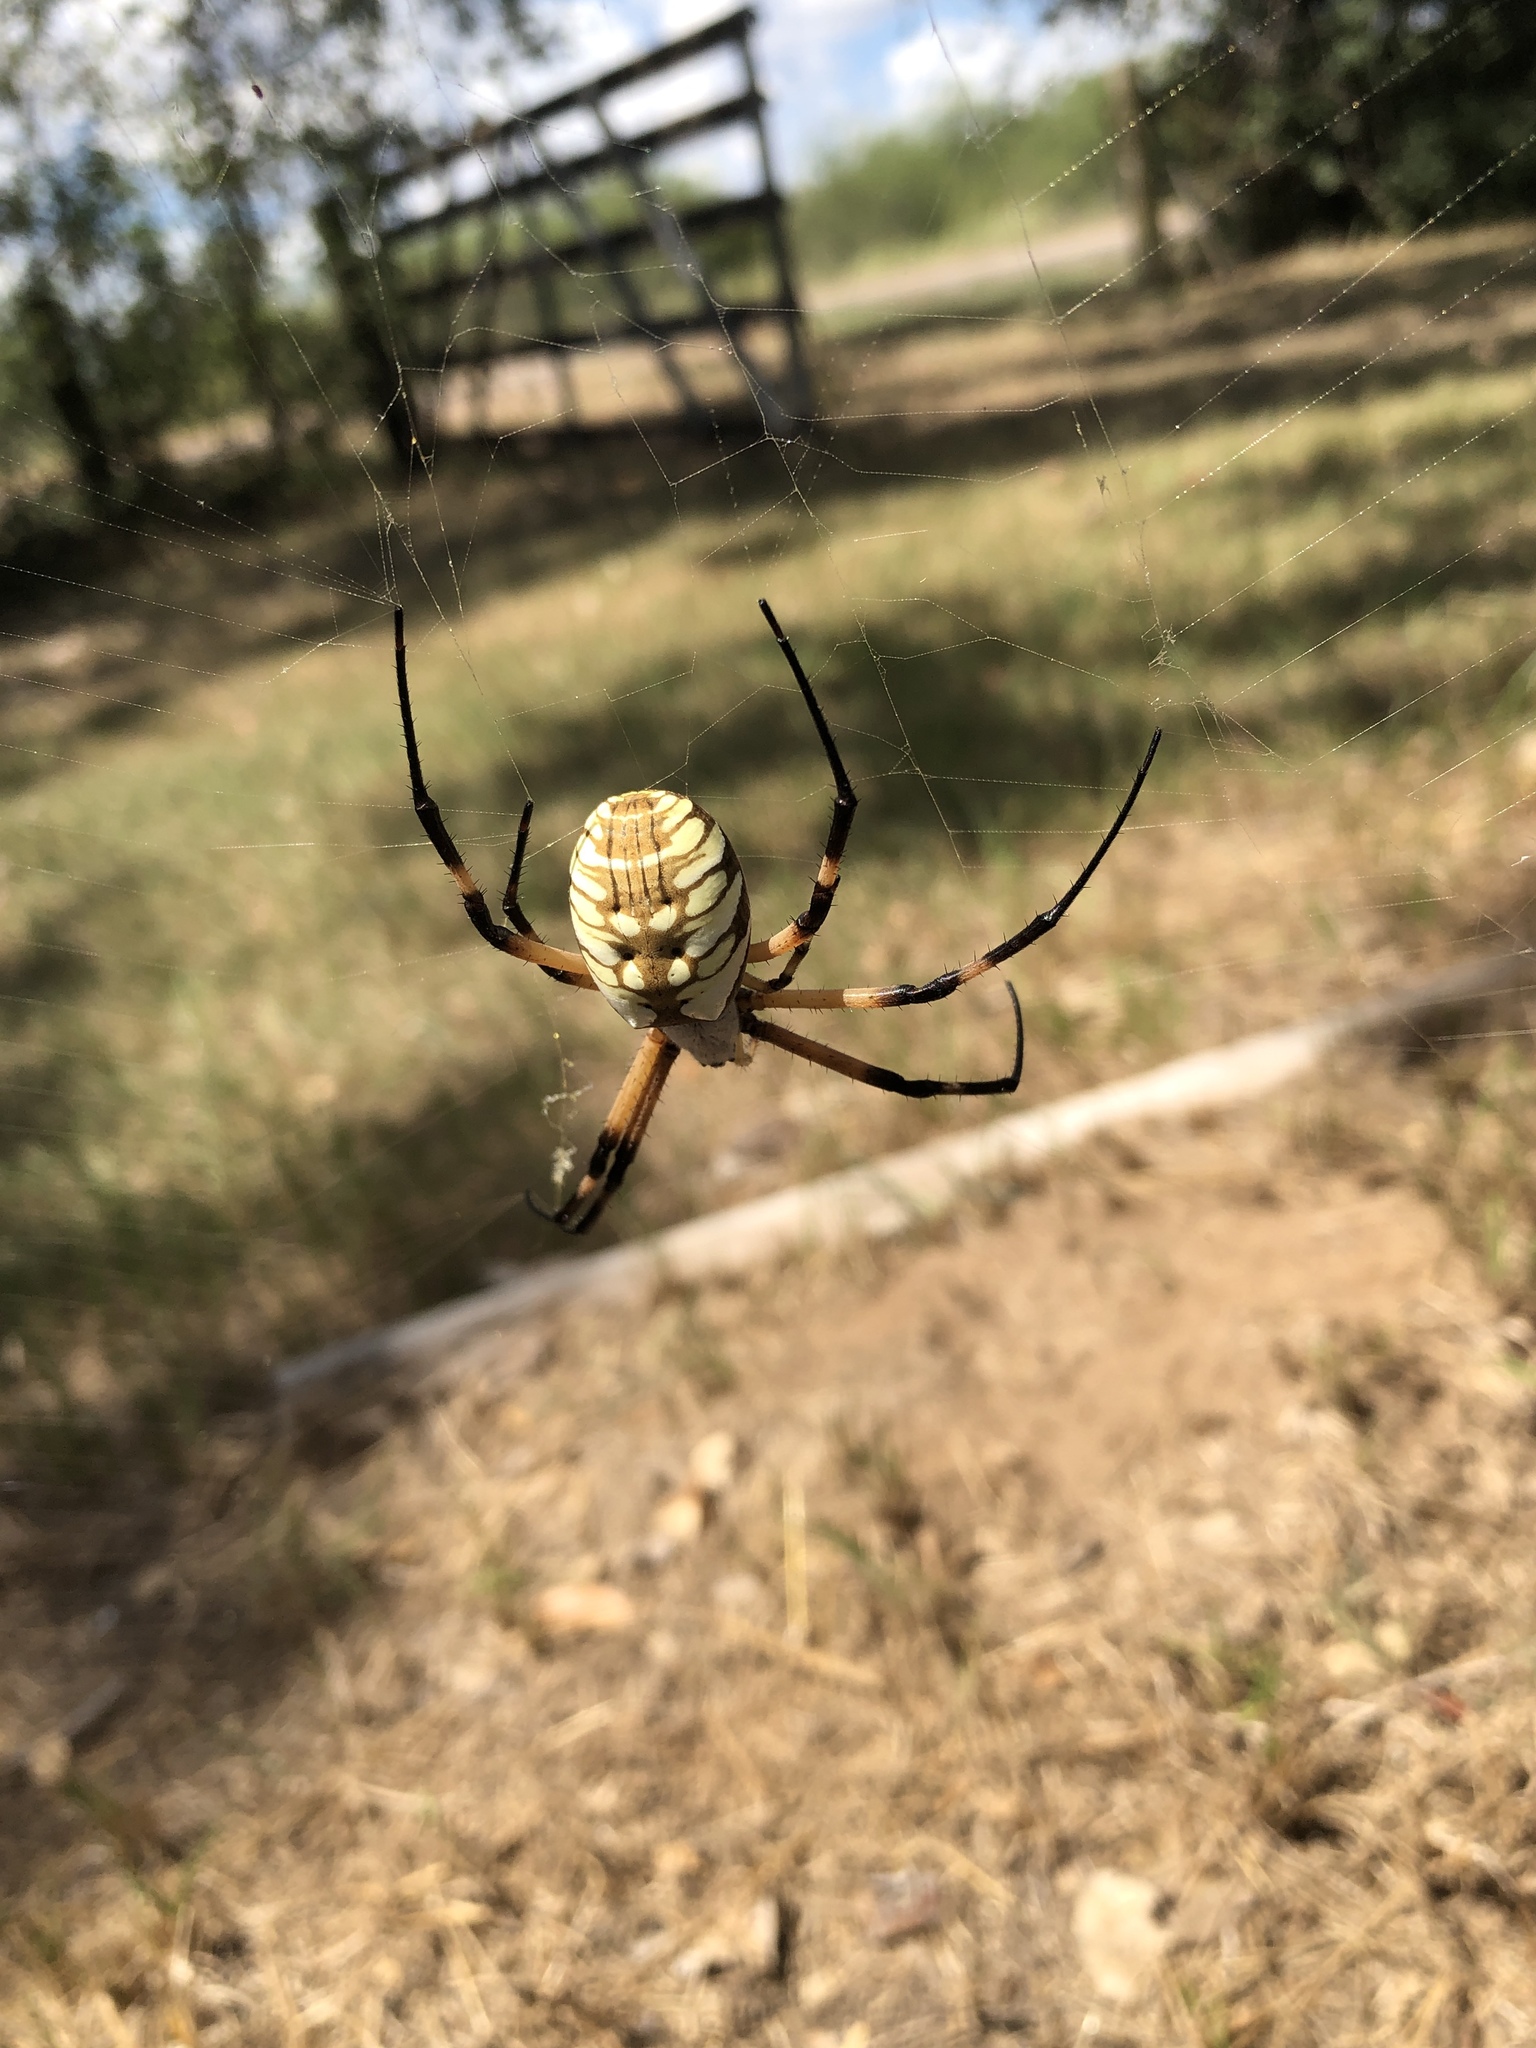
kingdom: Animalia
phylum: Arthropoda
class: Arachnida
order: Araneae
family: Araneidae
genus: Argiope
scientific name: Argiope aurantia
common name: Orb weavers
